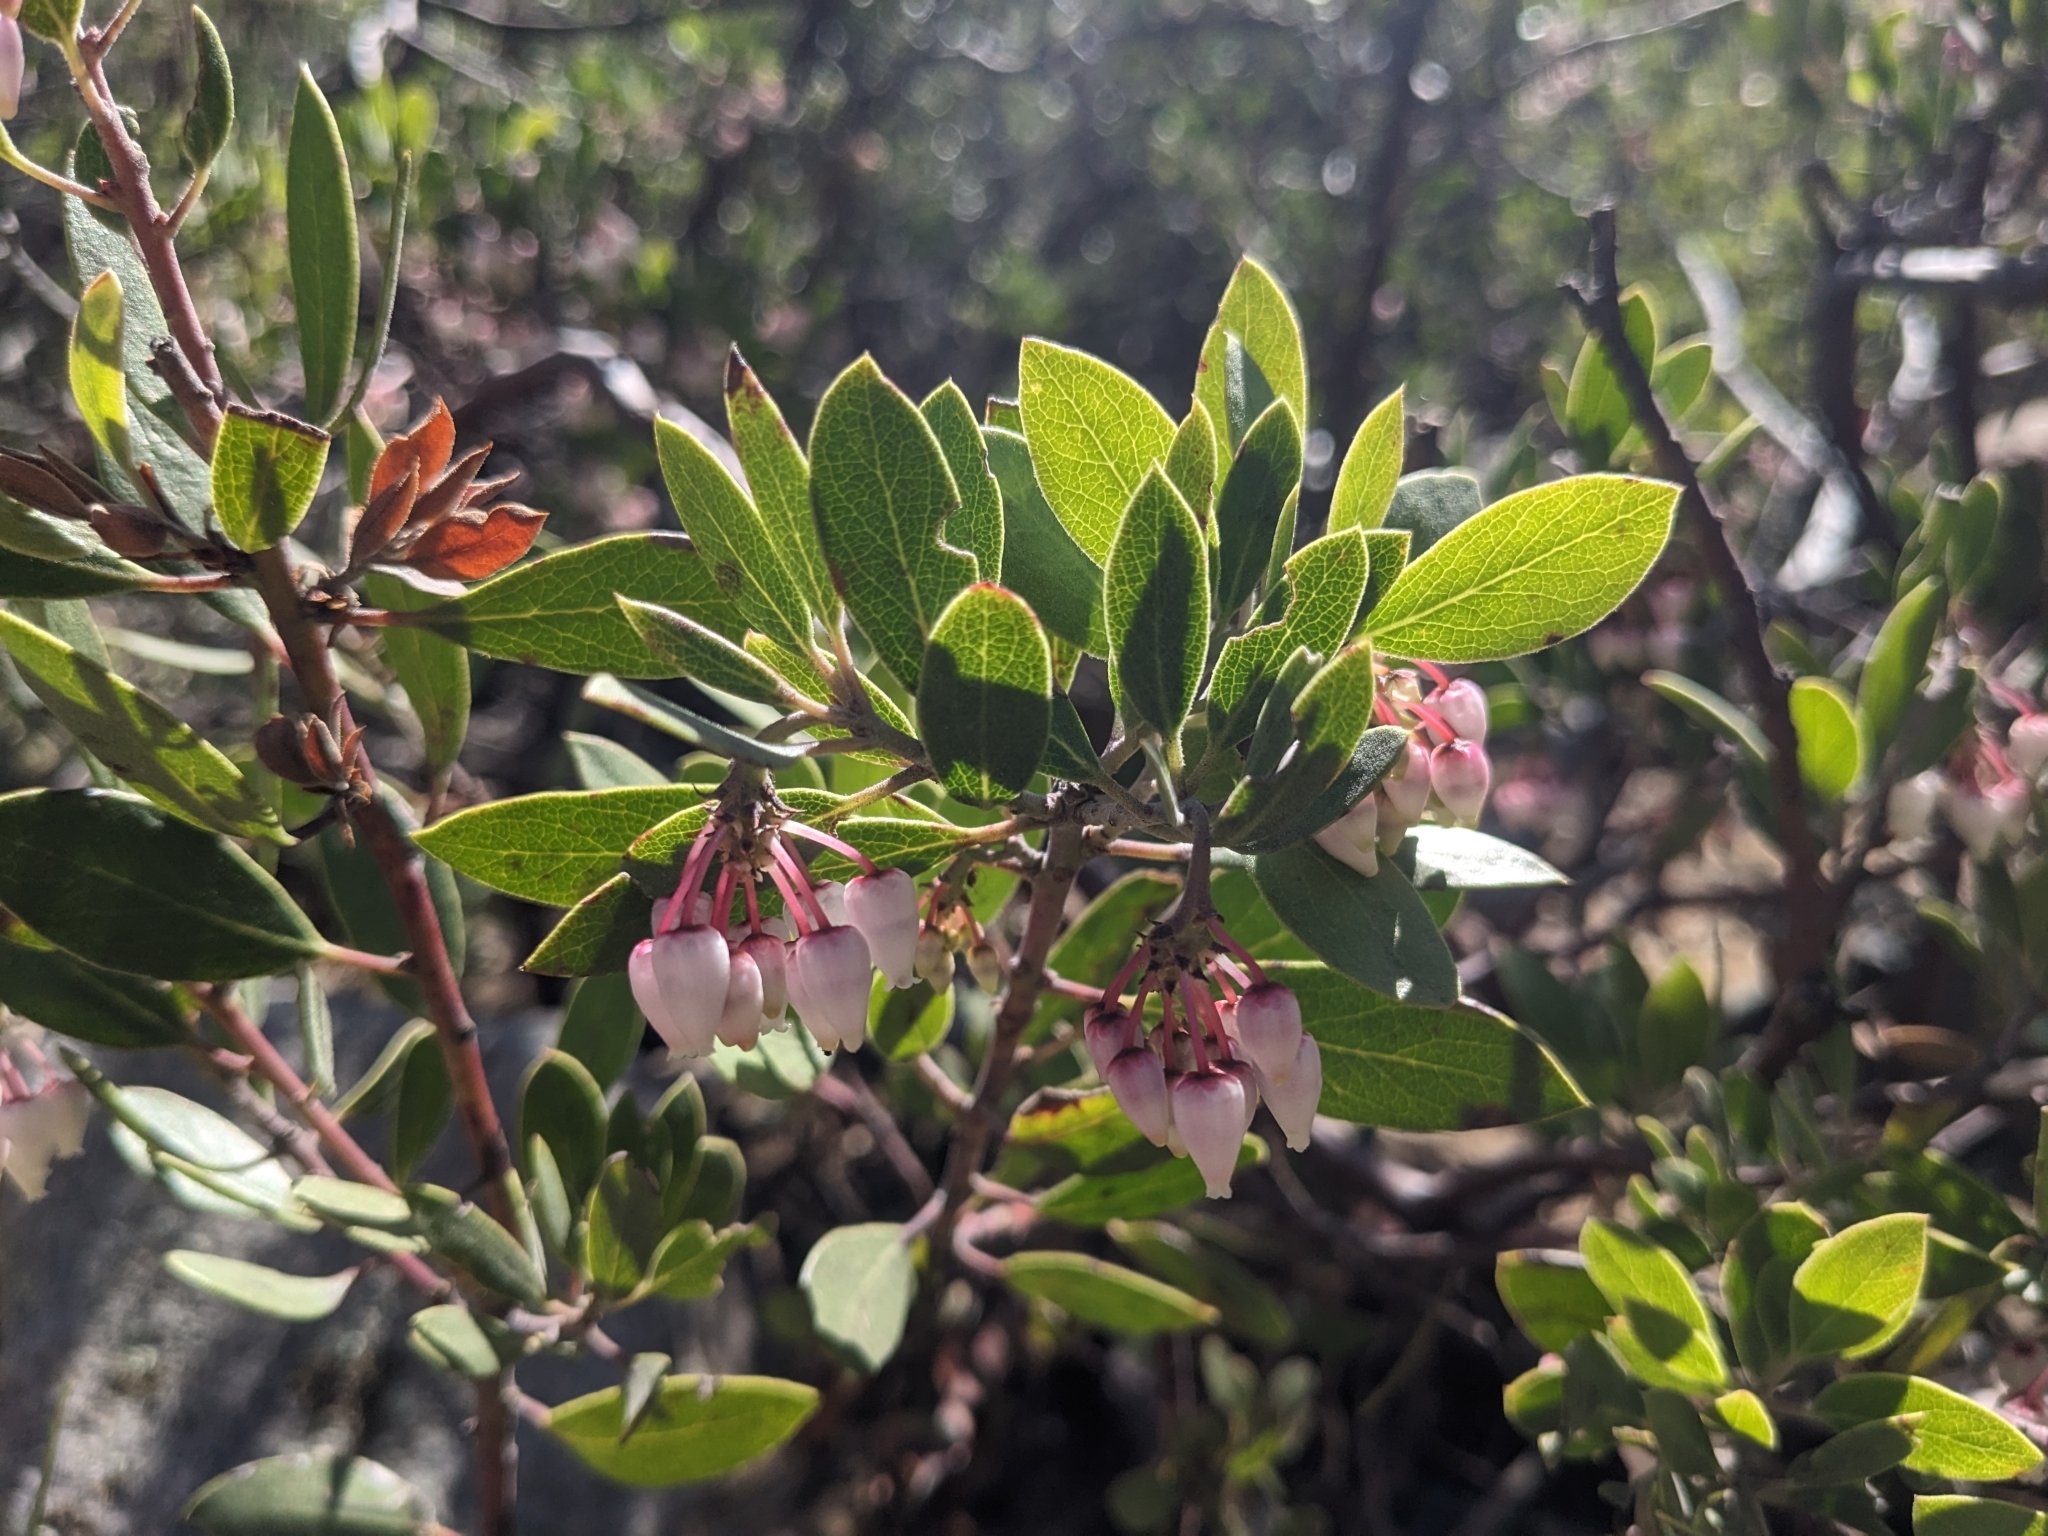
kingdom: Plantae
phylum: Tracheophyta
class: Magnoliopsida
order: Ericales
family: Ericaceae
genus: Arctostaphylos
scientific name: Arctostaphylos pungens
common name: Mexican manzanita
